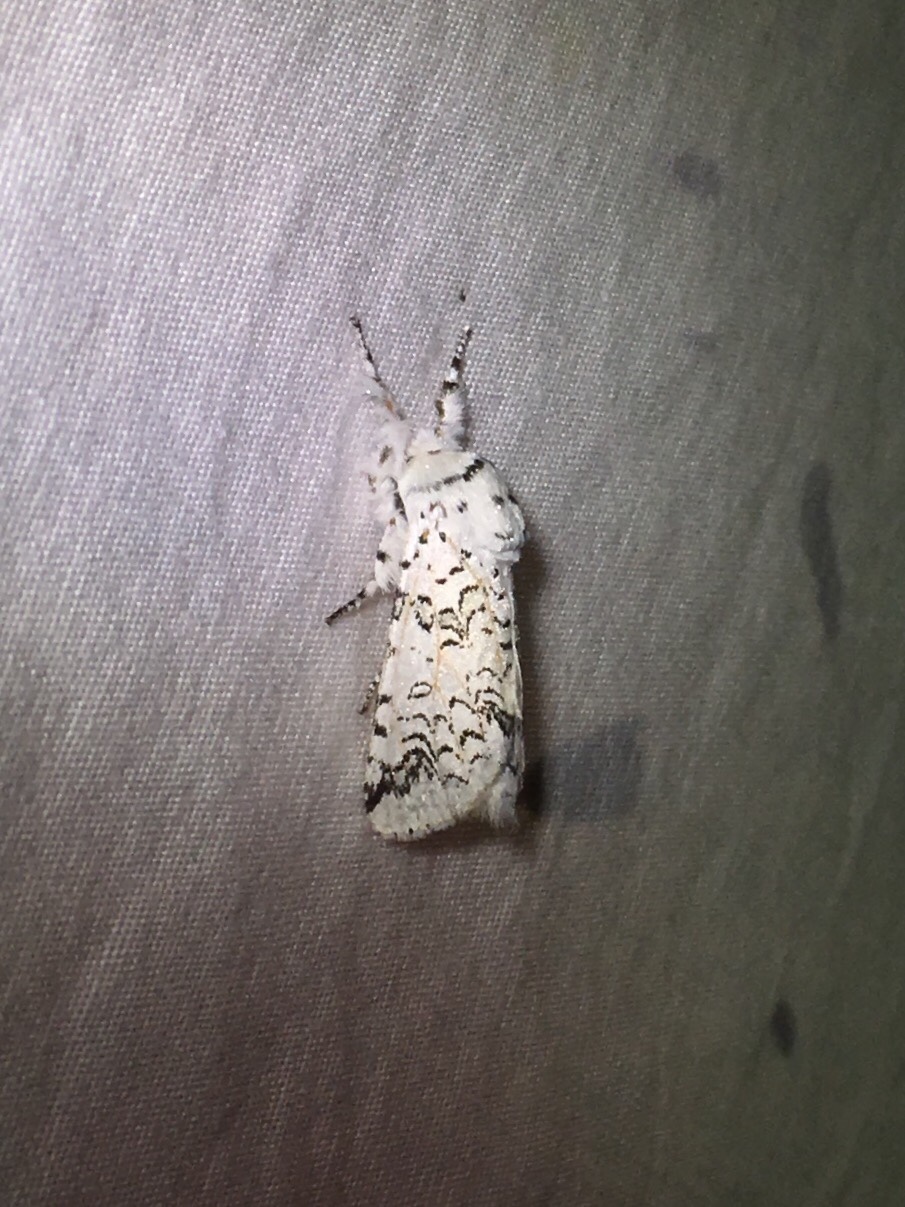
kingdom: Animalia
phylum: Arthropoda
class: Insecta
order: Lepidoptera
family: Notodontidae
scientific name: Notodontidae
